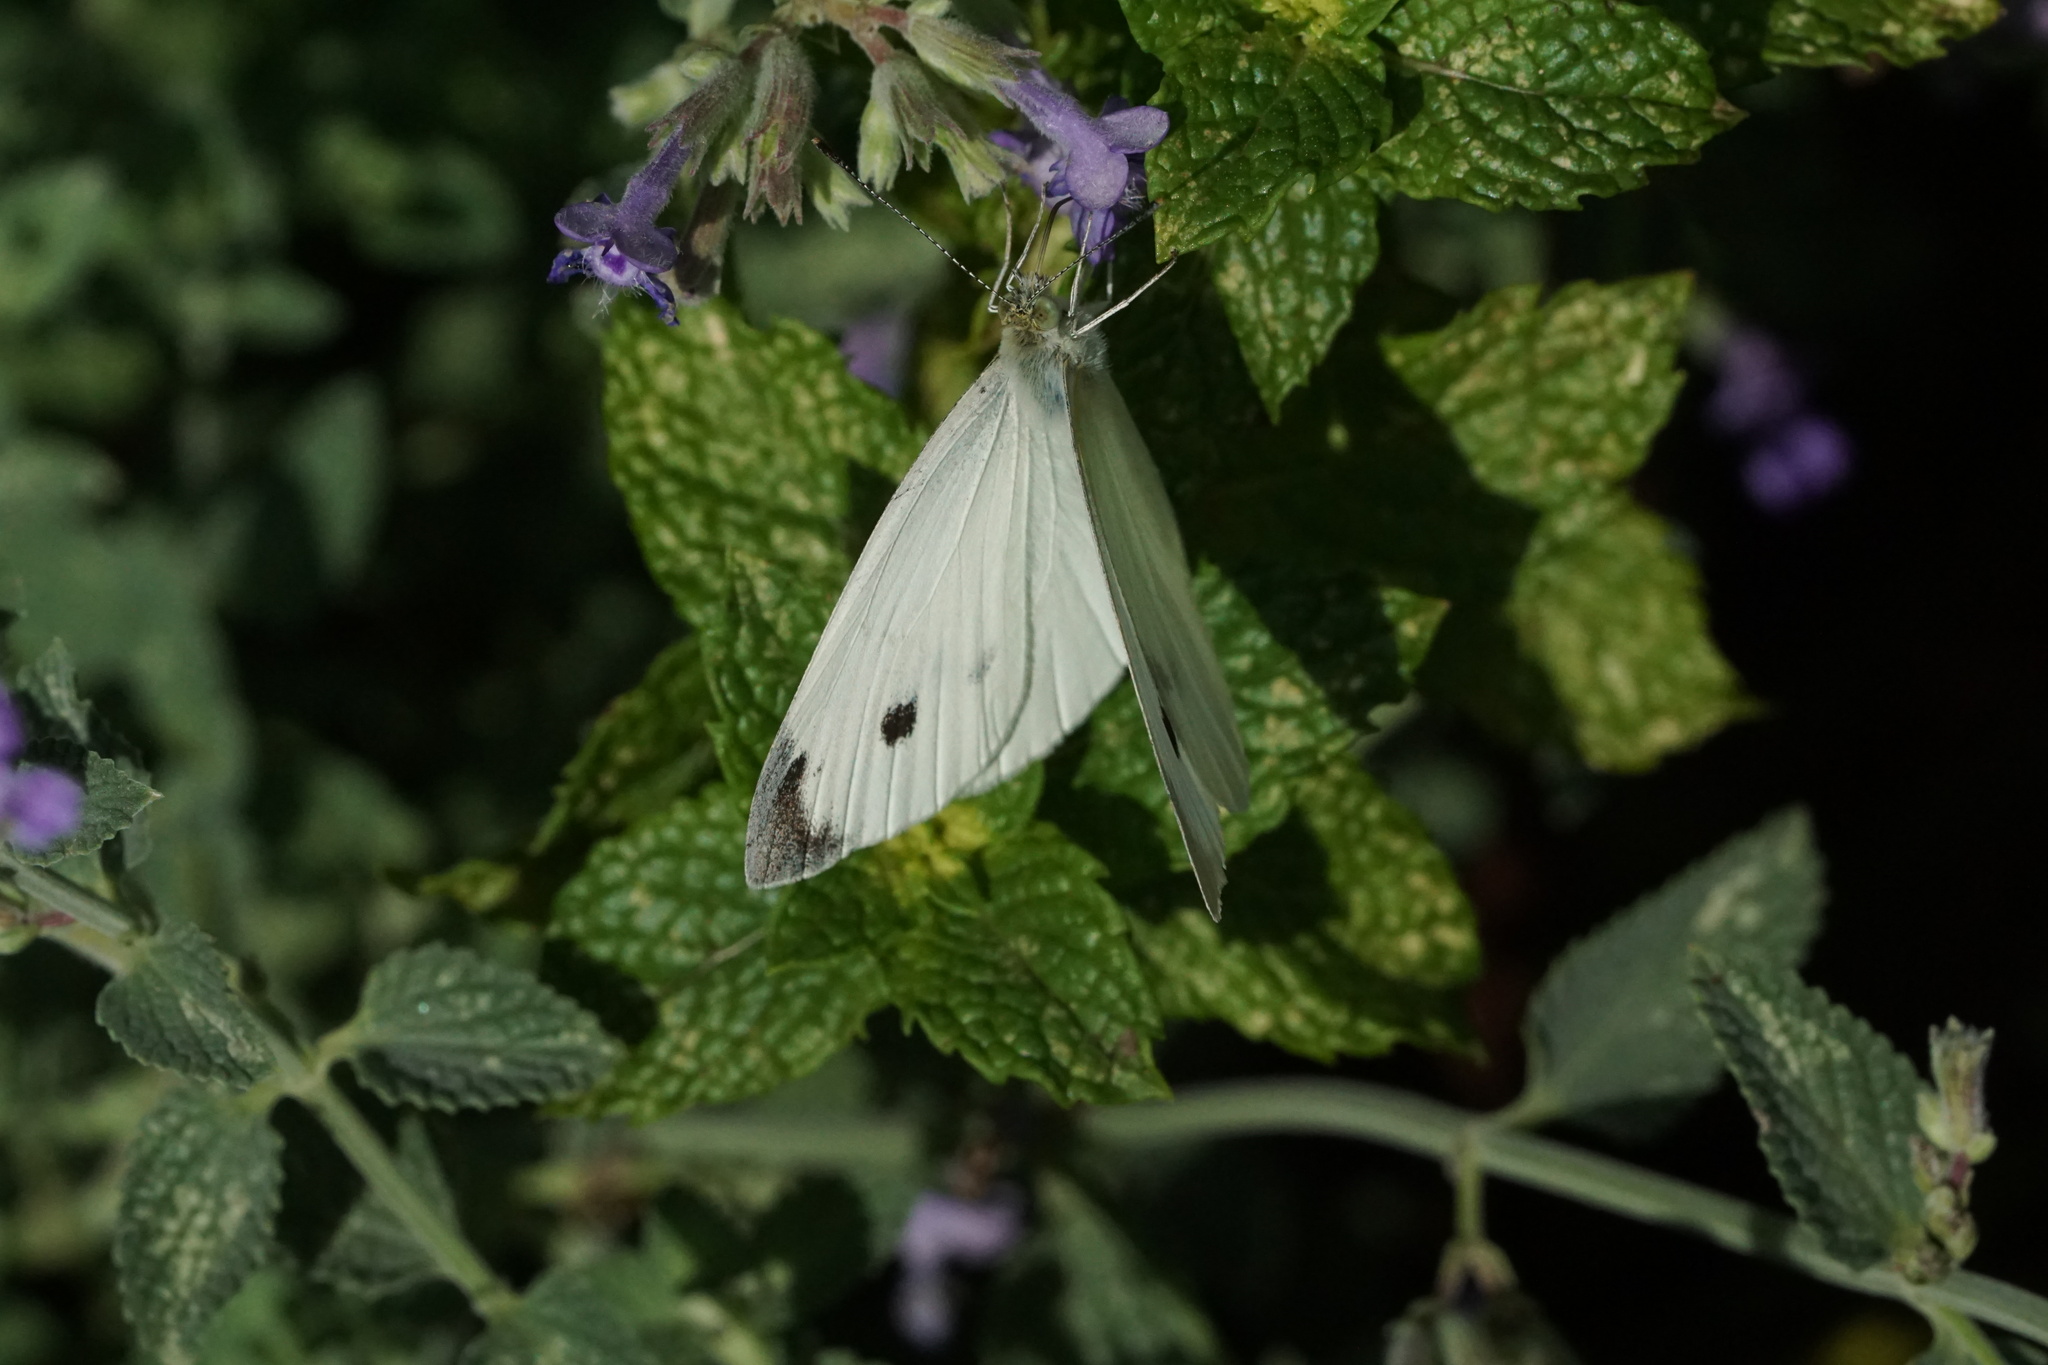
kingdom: Animalia
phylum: Arthropoda
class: Insecta
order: Lepidoptera
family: Pieridae
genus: Pieris
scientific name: Pieris rapae
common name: Small white
